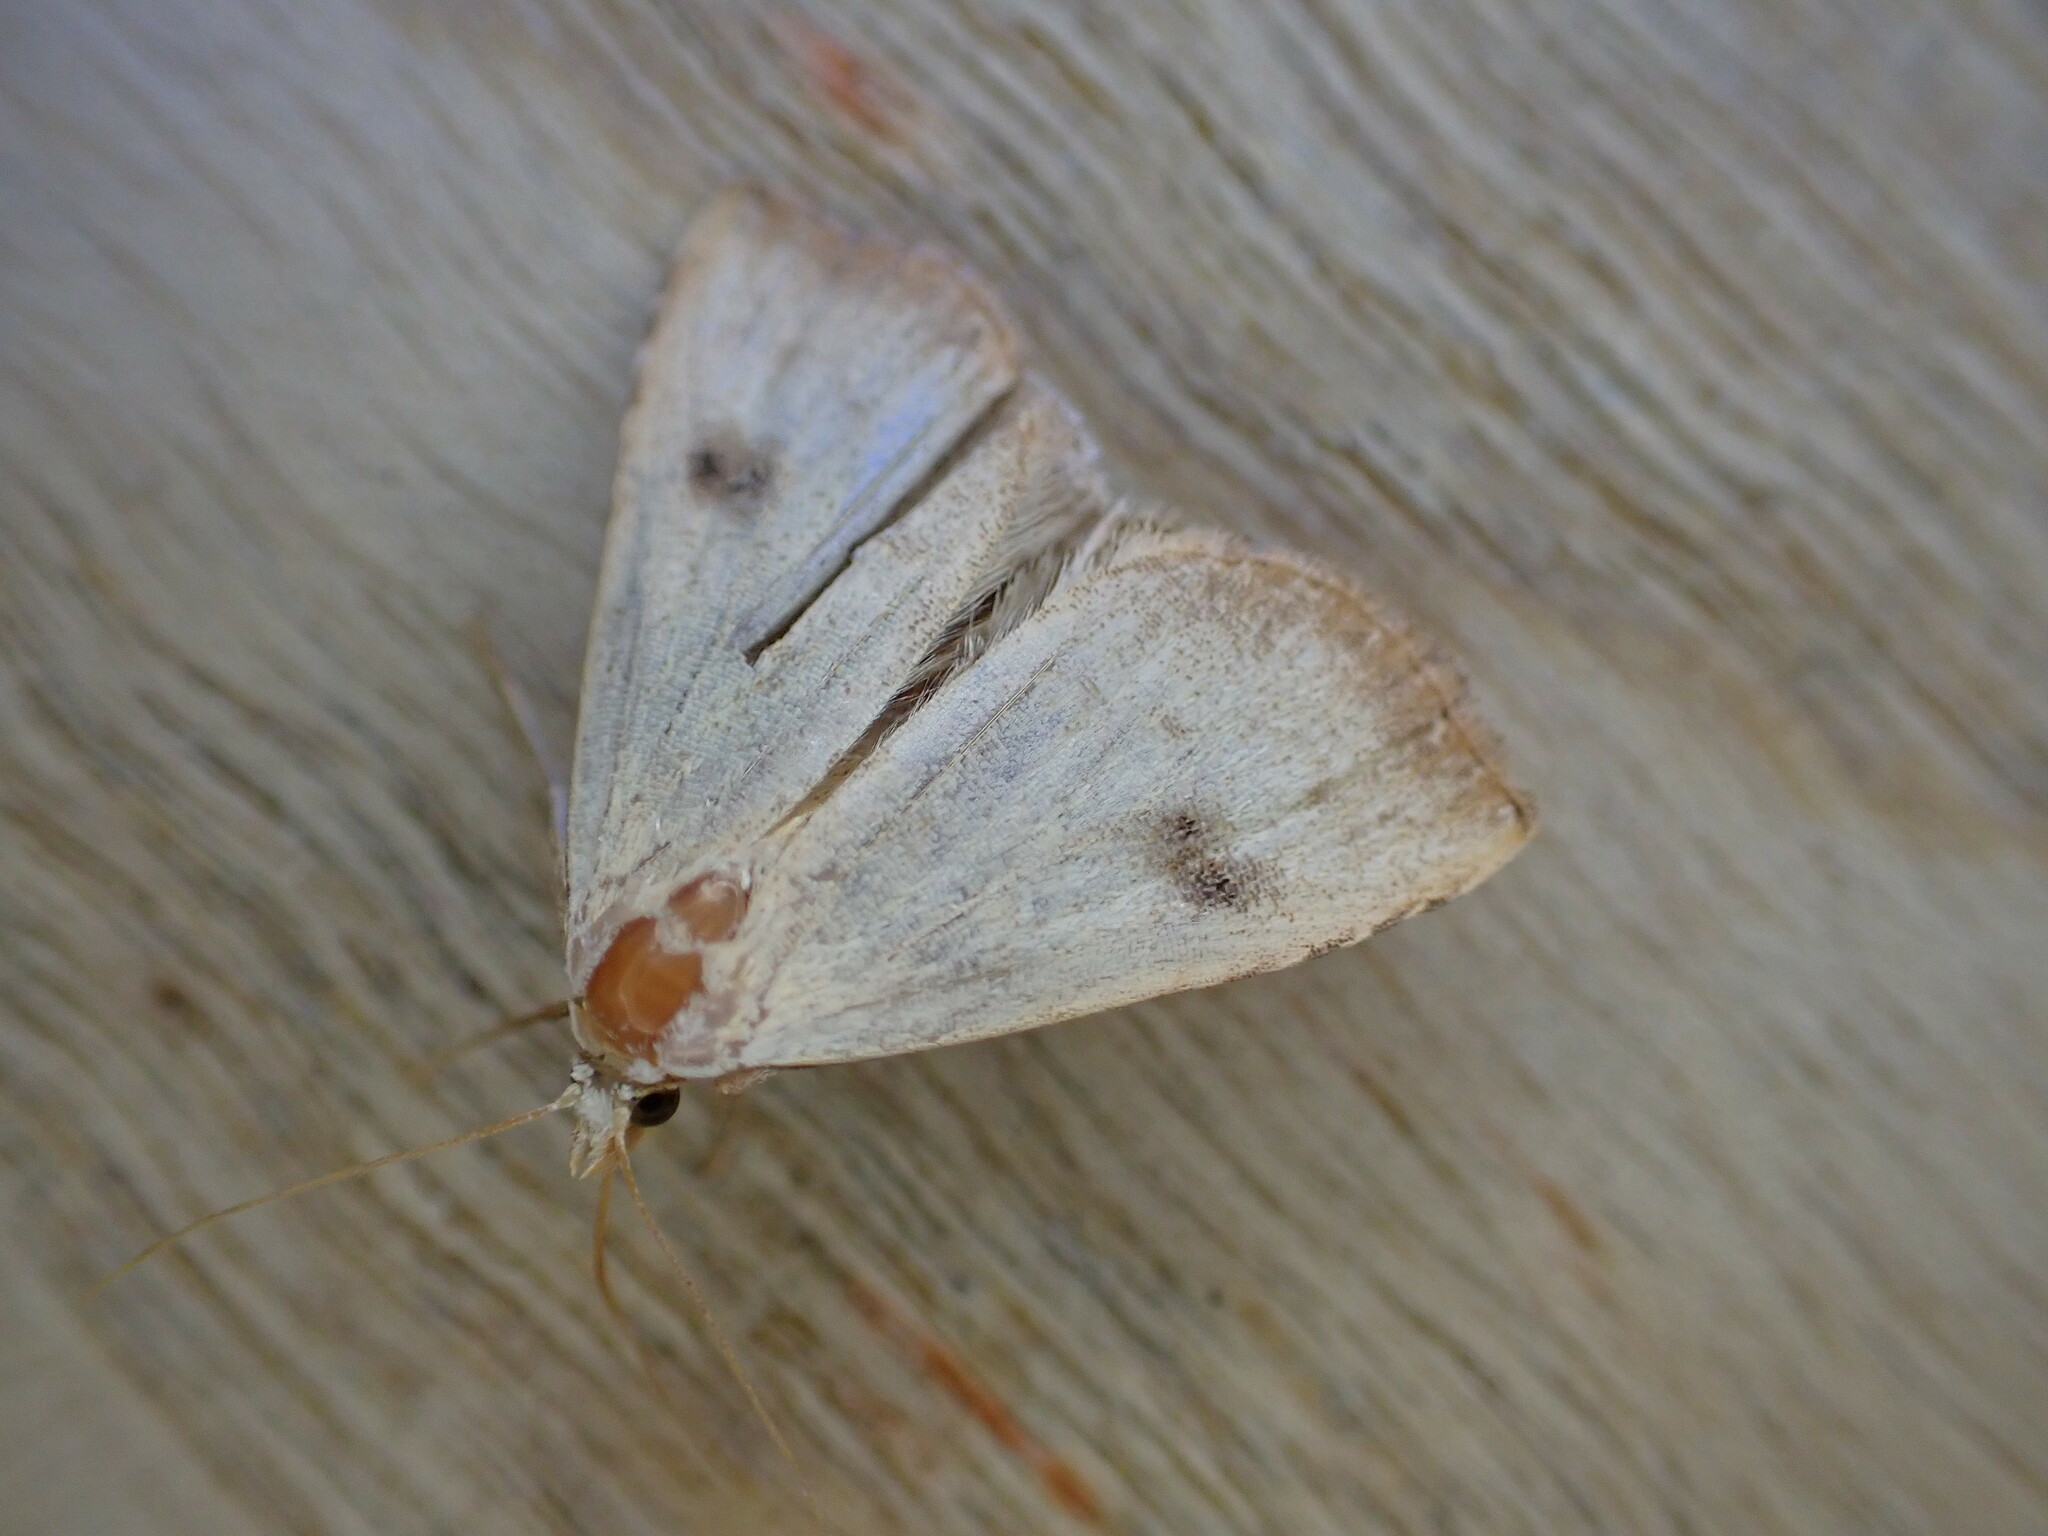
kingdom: Animalia
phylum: Arthropoda
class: Insecta
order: Lepidoptera
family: Erebidae
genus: Rivula
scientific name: Rivula sericealis
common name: Straw dot
